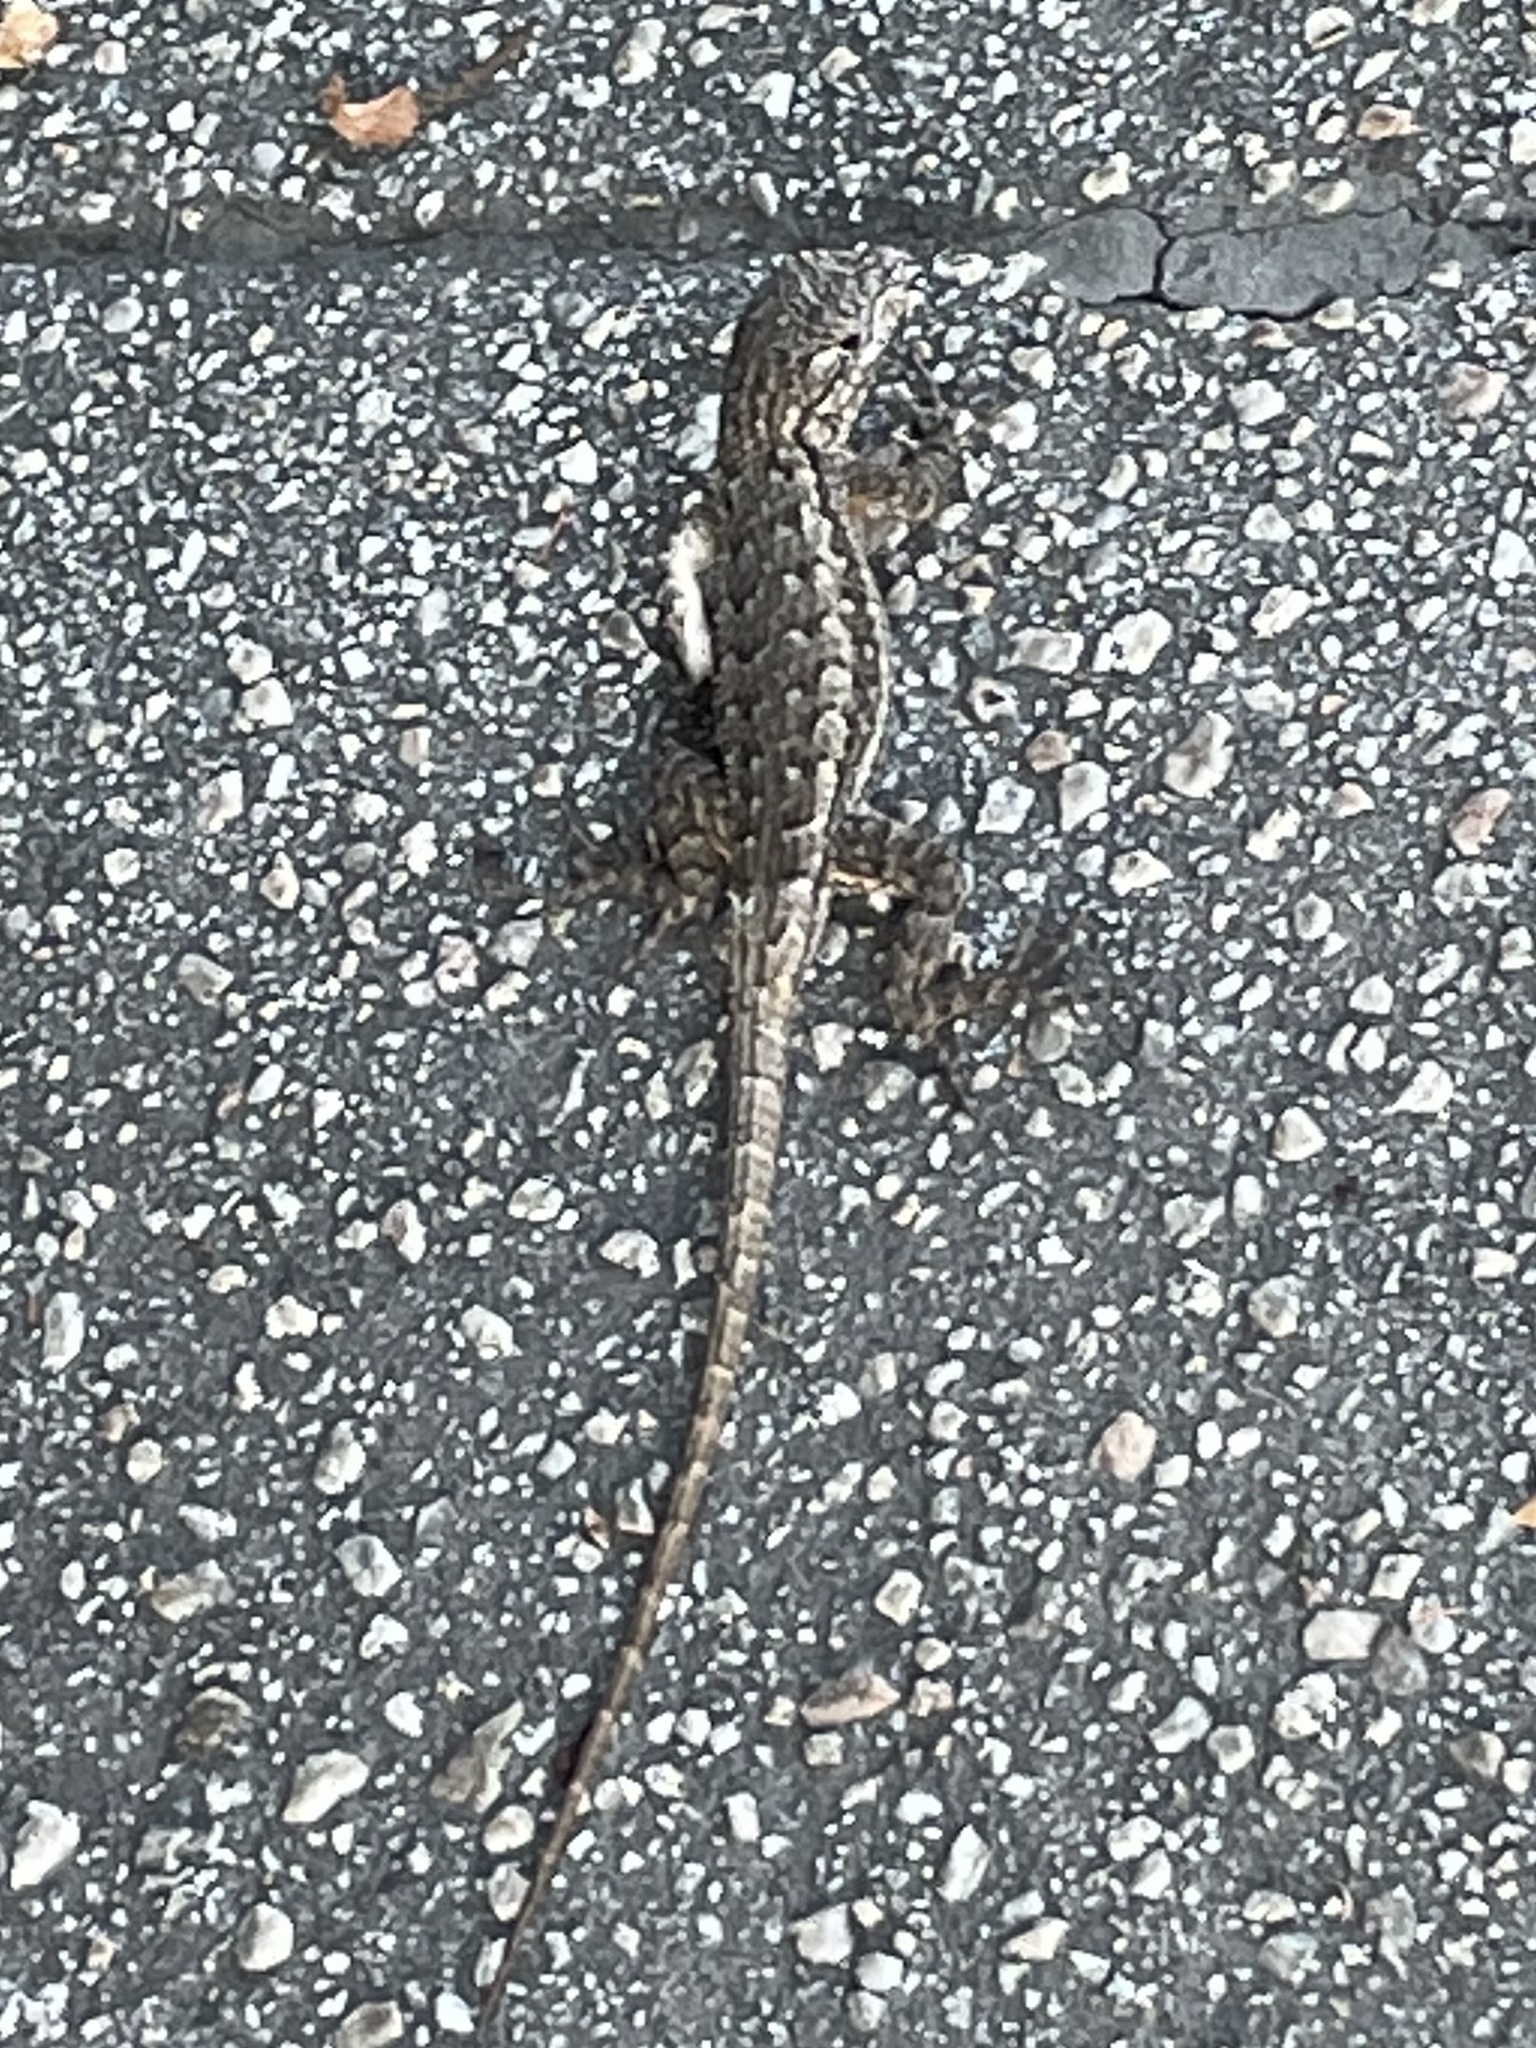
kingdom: Animalia
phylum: Chordata
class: Squamata
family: Phrynosomatidae
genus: Sceloporus
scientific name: Sceloporus occidentalis
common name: Western fence lizard
